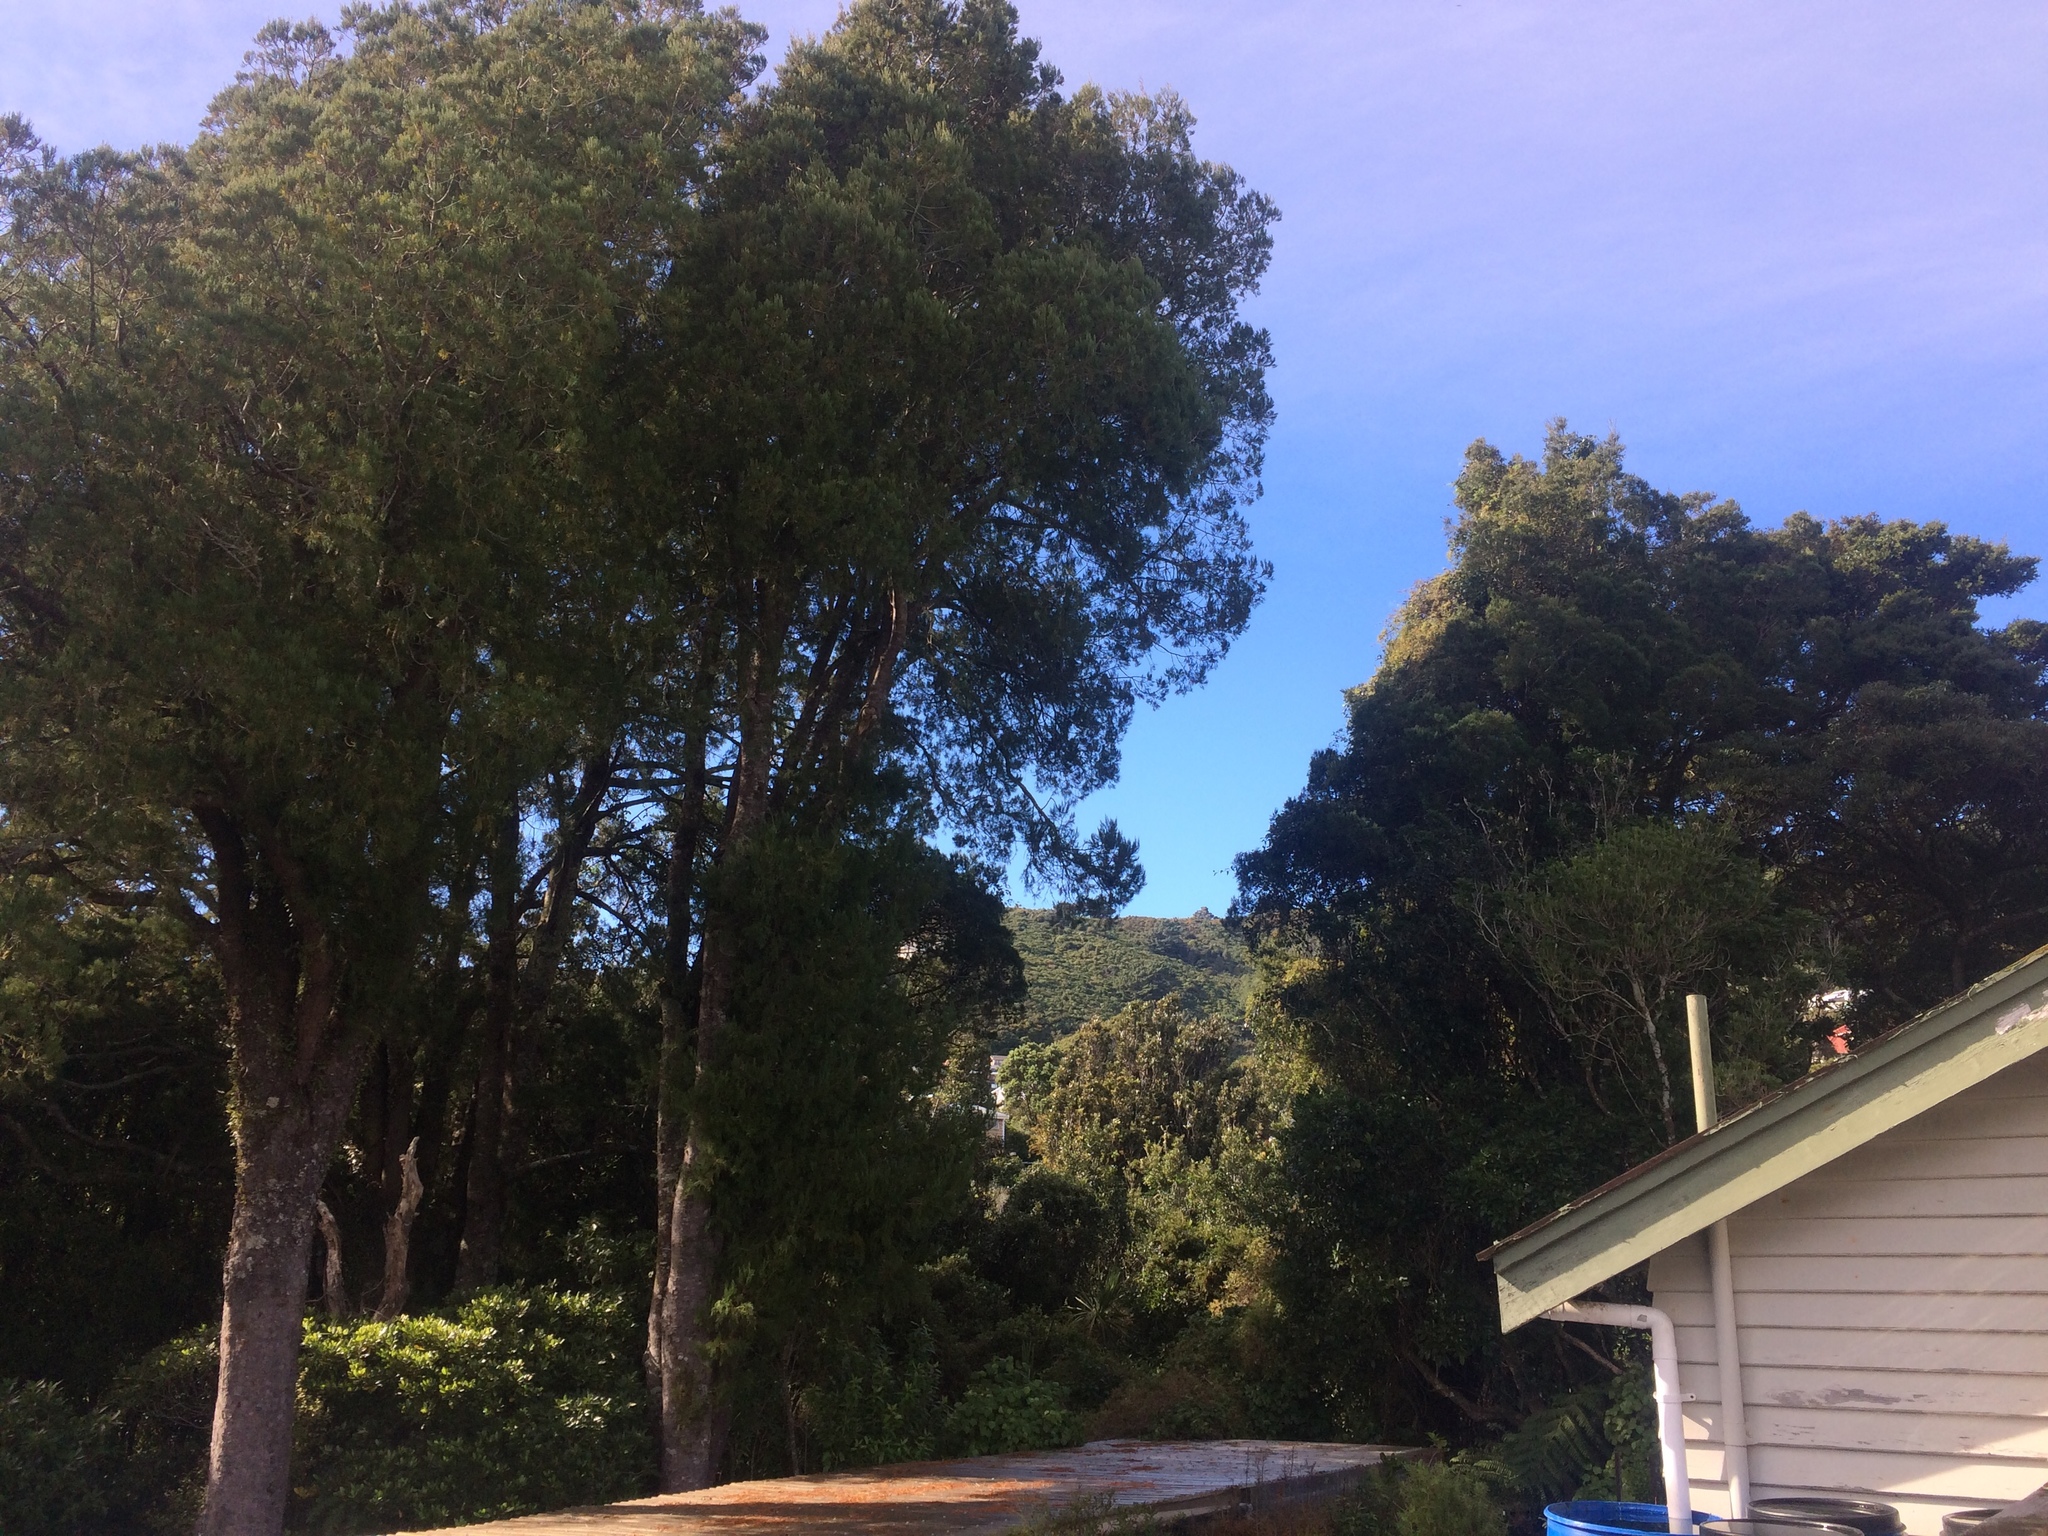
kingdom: Plantae
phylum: Tracheophyta
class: Pinopsida
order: Pinales
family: Podocarpaceae
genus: Dacrycarpus
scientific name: Dacrycarpus dacrydioides
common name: White pine
